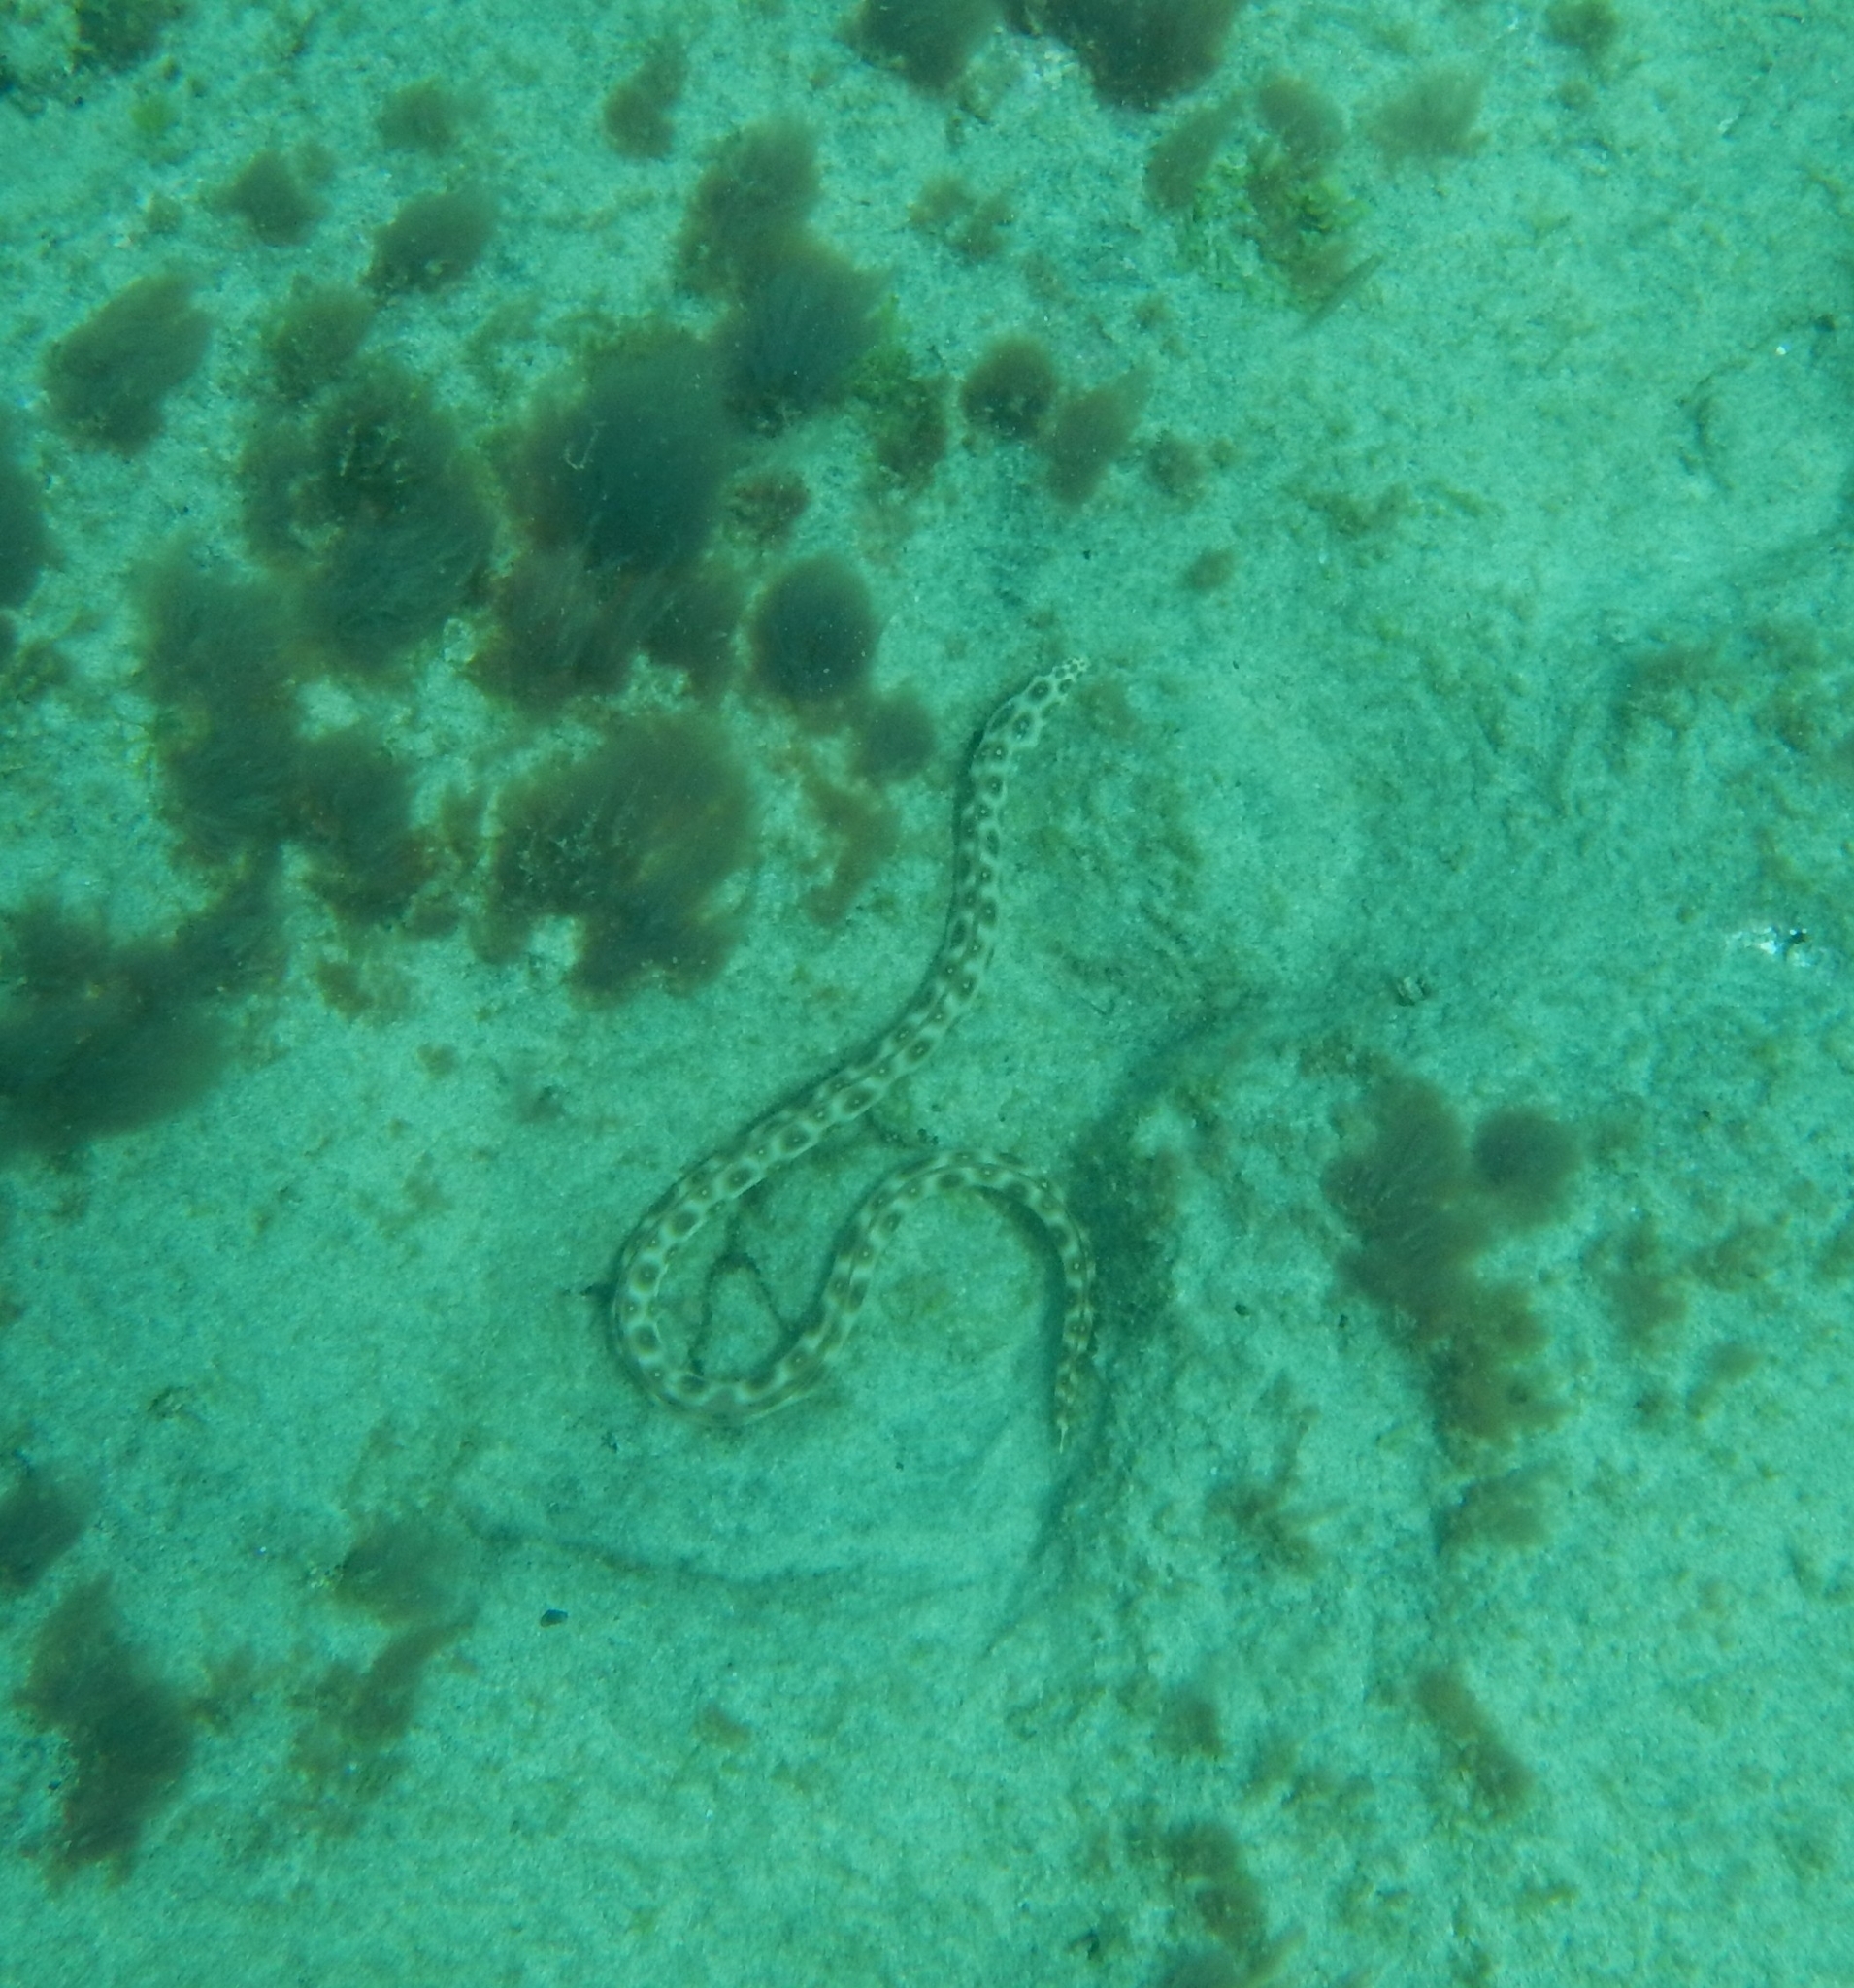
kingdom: Animalia
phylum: Chordata
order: Anguilliformes
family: Ophichthidae
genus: Myrichthys
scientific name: Myrichthys pardalis
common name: Leopard eel
